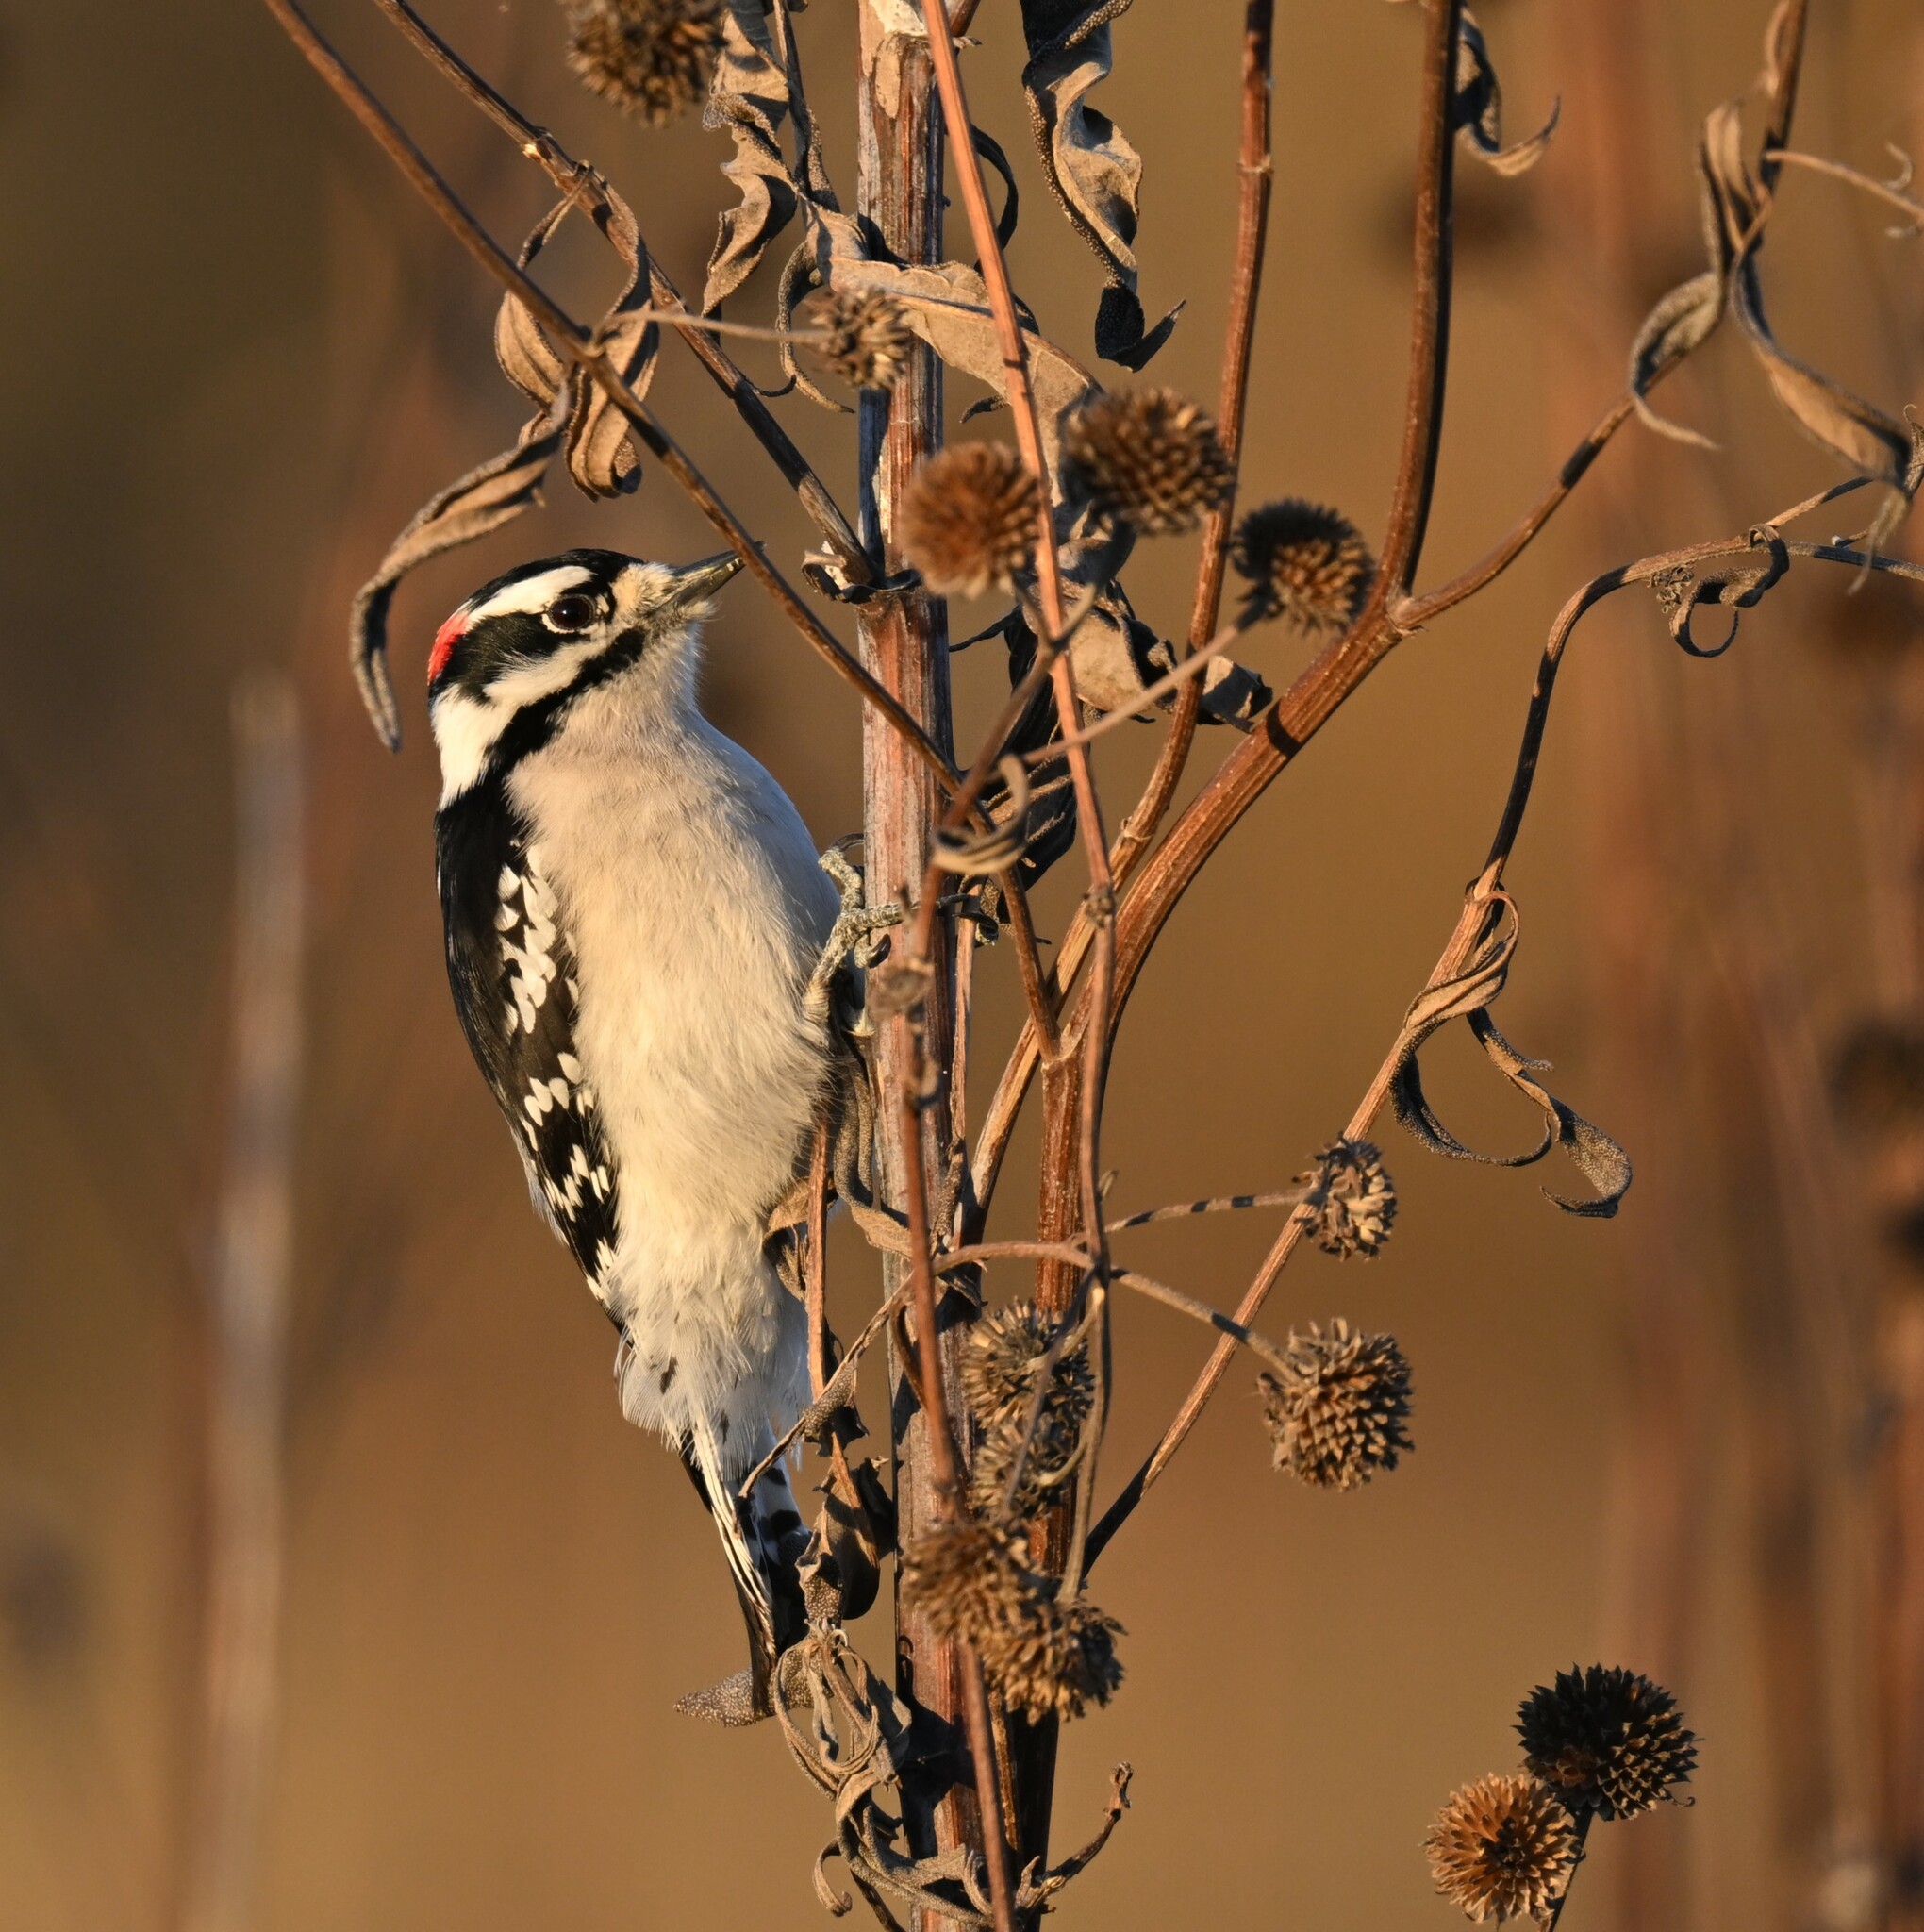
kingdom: Animalia
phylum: Chordata
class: Aves
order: Piciformes
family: Picidae
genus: Dryobates
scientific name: Dryobates pubescens
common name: Downy woodpecker
